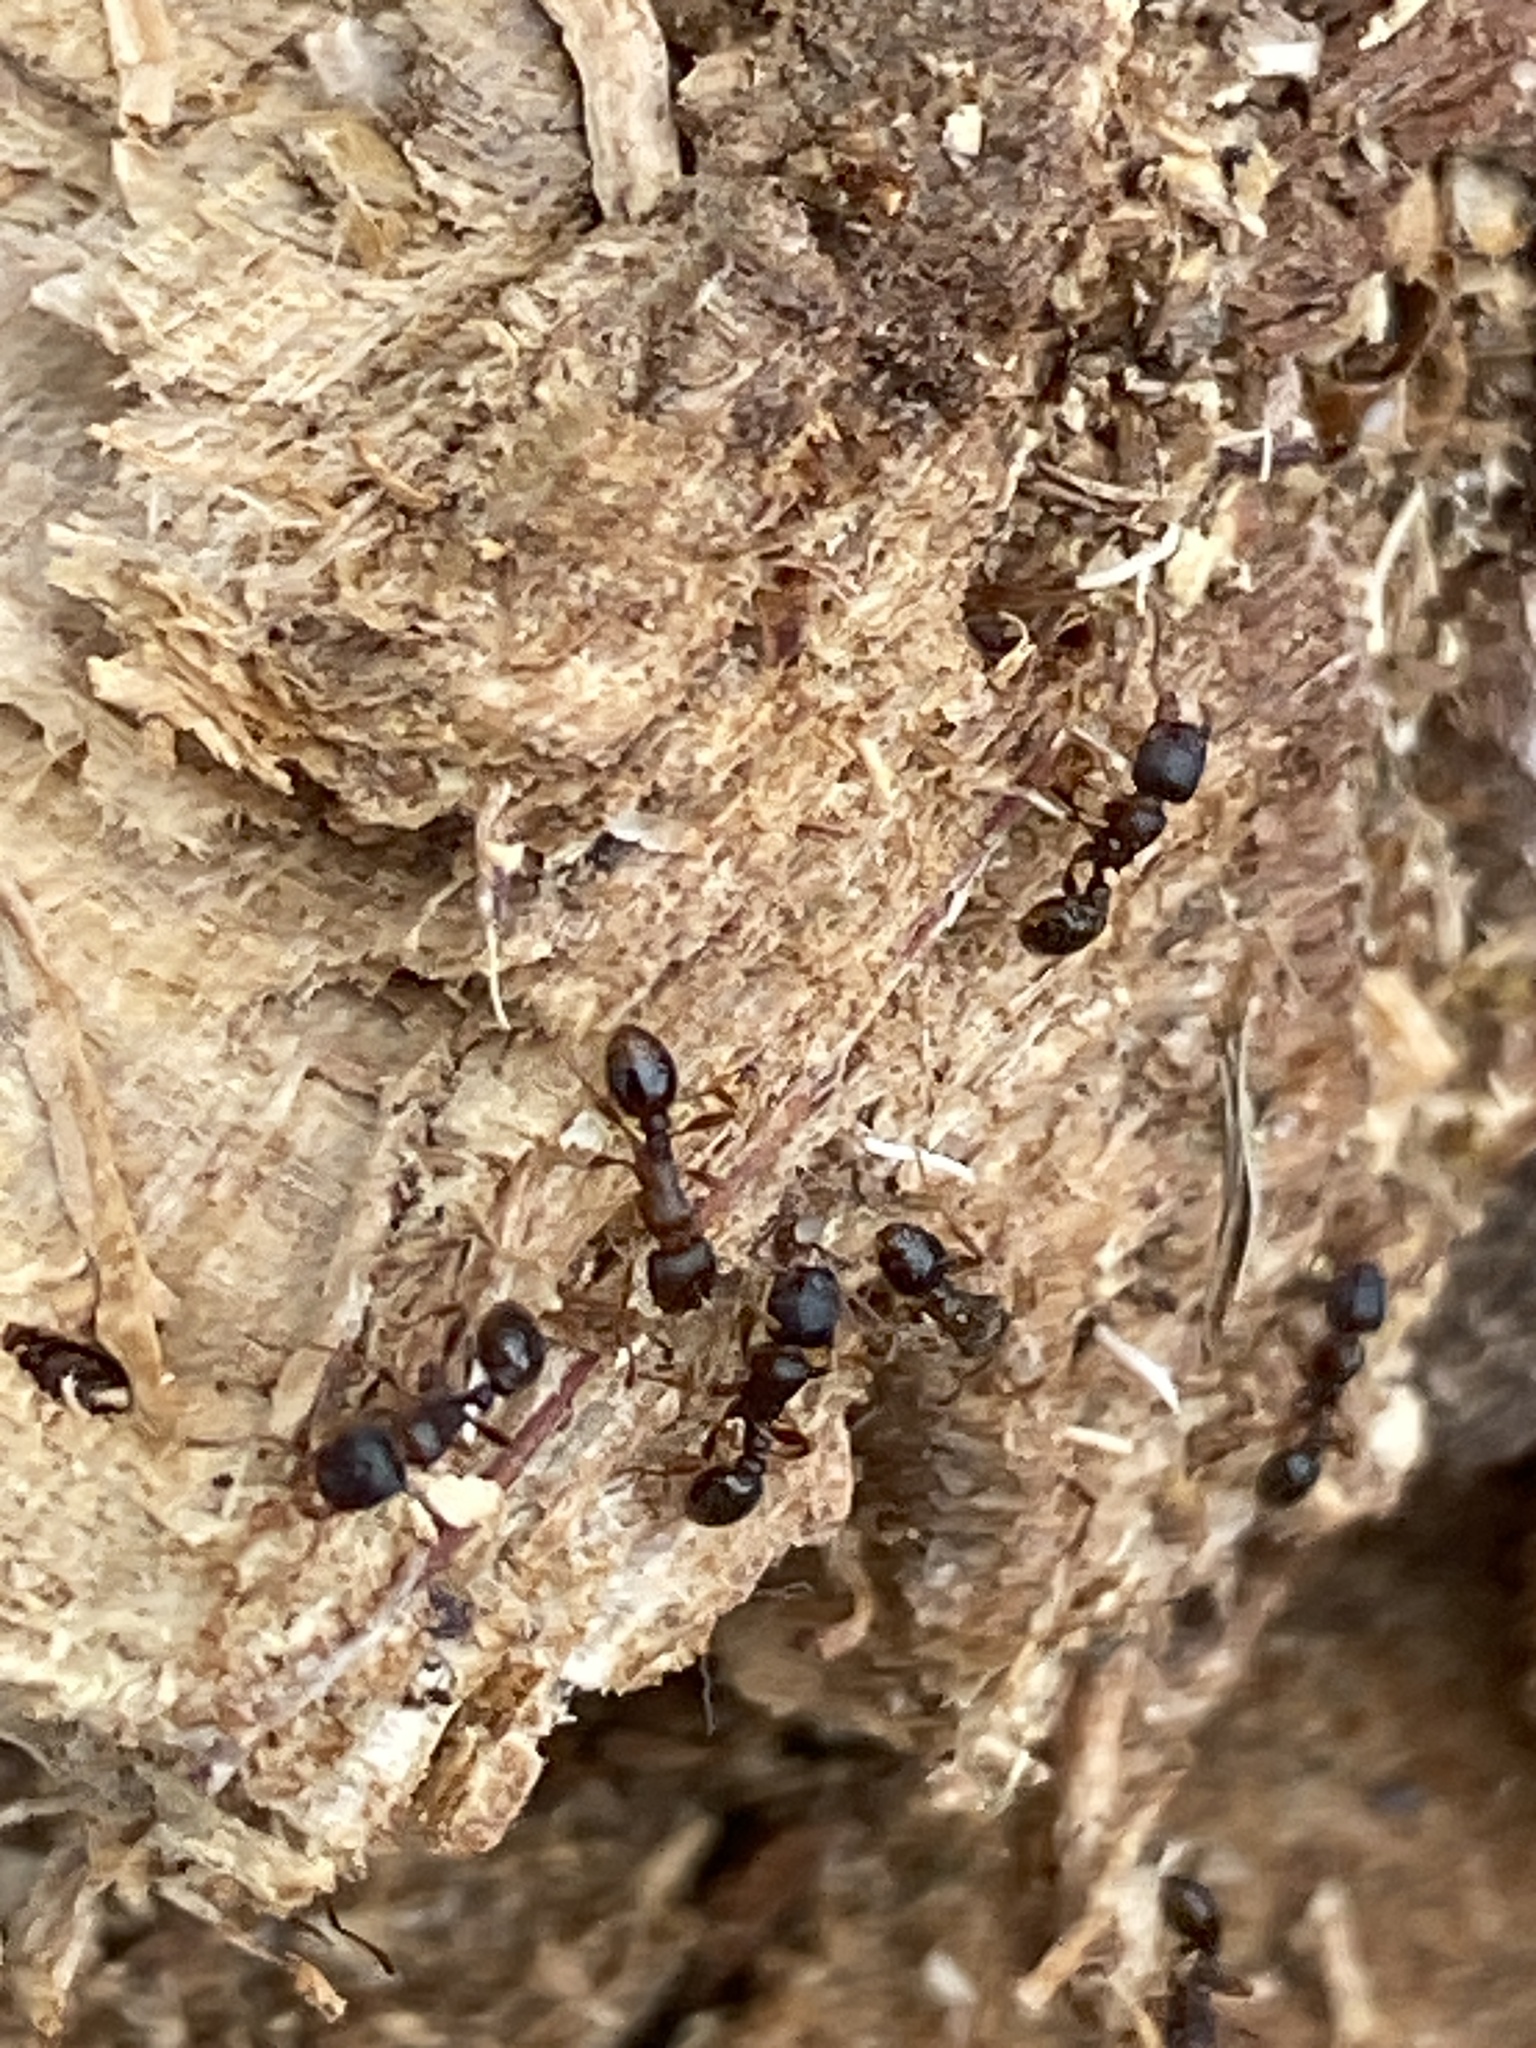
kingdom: Animalia
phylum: Arthropoda
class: Insecta
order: Hymenoptera
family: Formicidae
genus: Tetramorium
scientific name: Tetramorium immigrans
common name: Pavement ant
